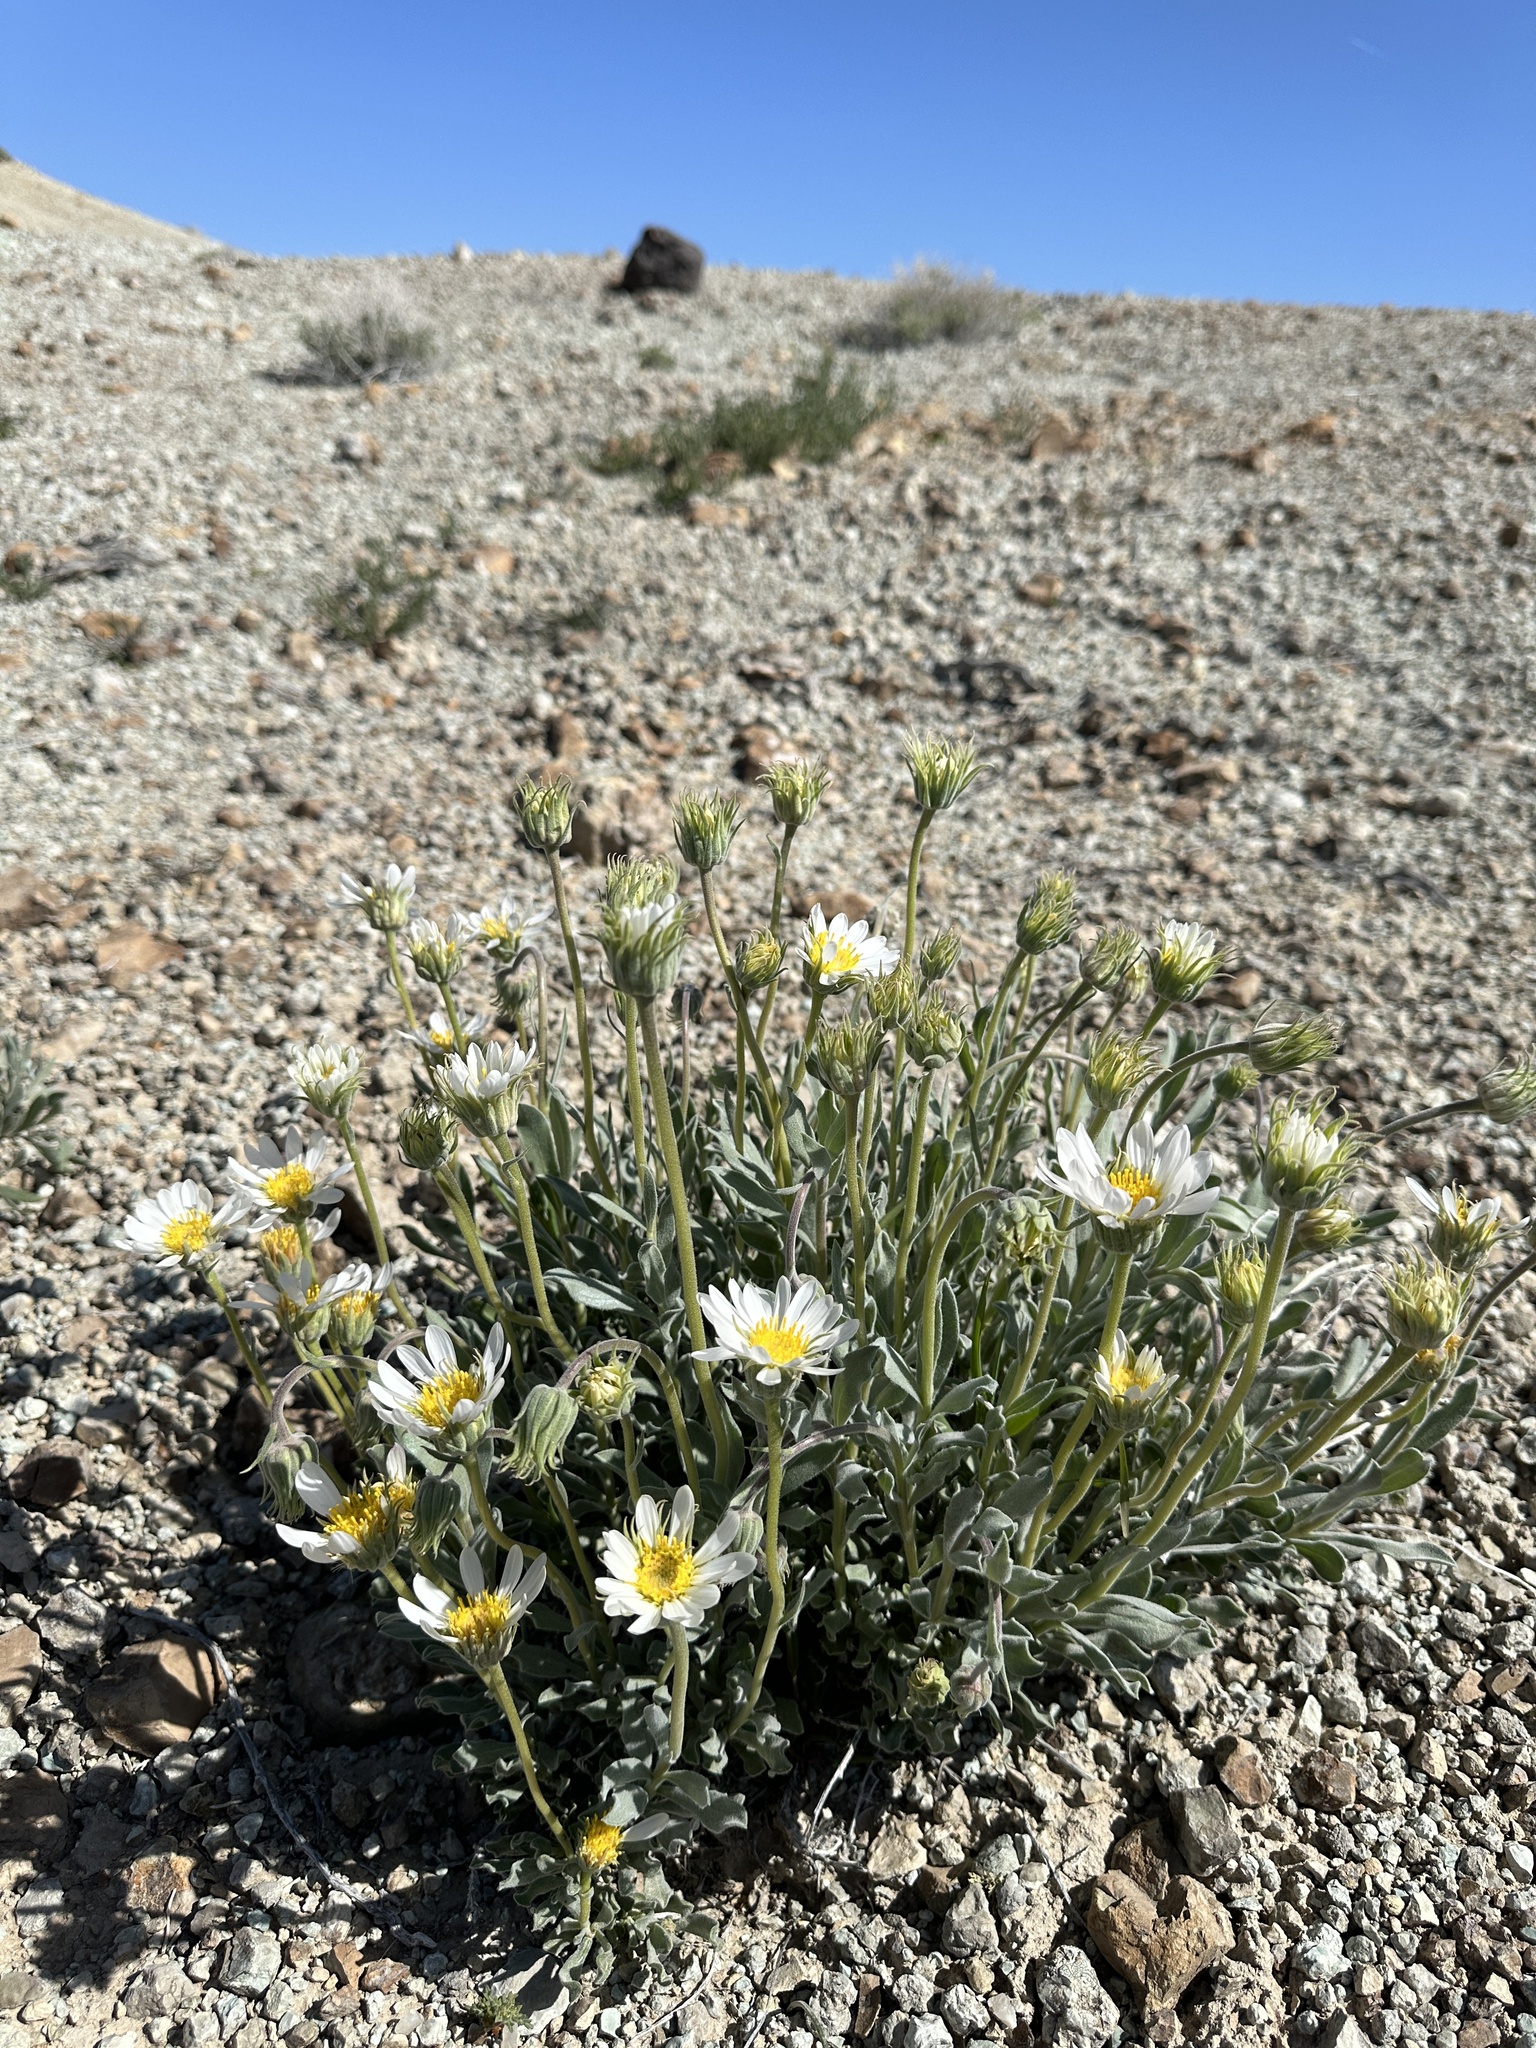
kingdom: Plantae
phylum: Tracheophyta
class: Magnoliopsida
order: Asterales
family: Asteraceae
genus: Xylorhiza
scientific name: Xylorhiza venusta
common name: Cisco woody-aster
